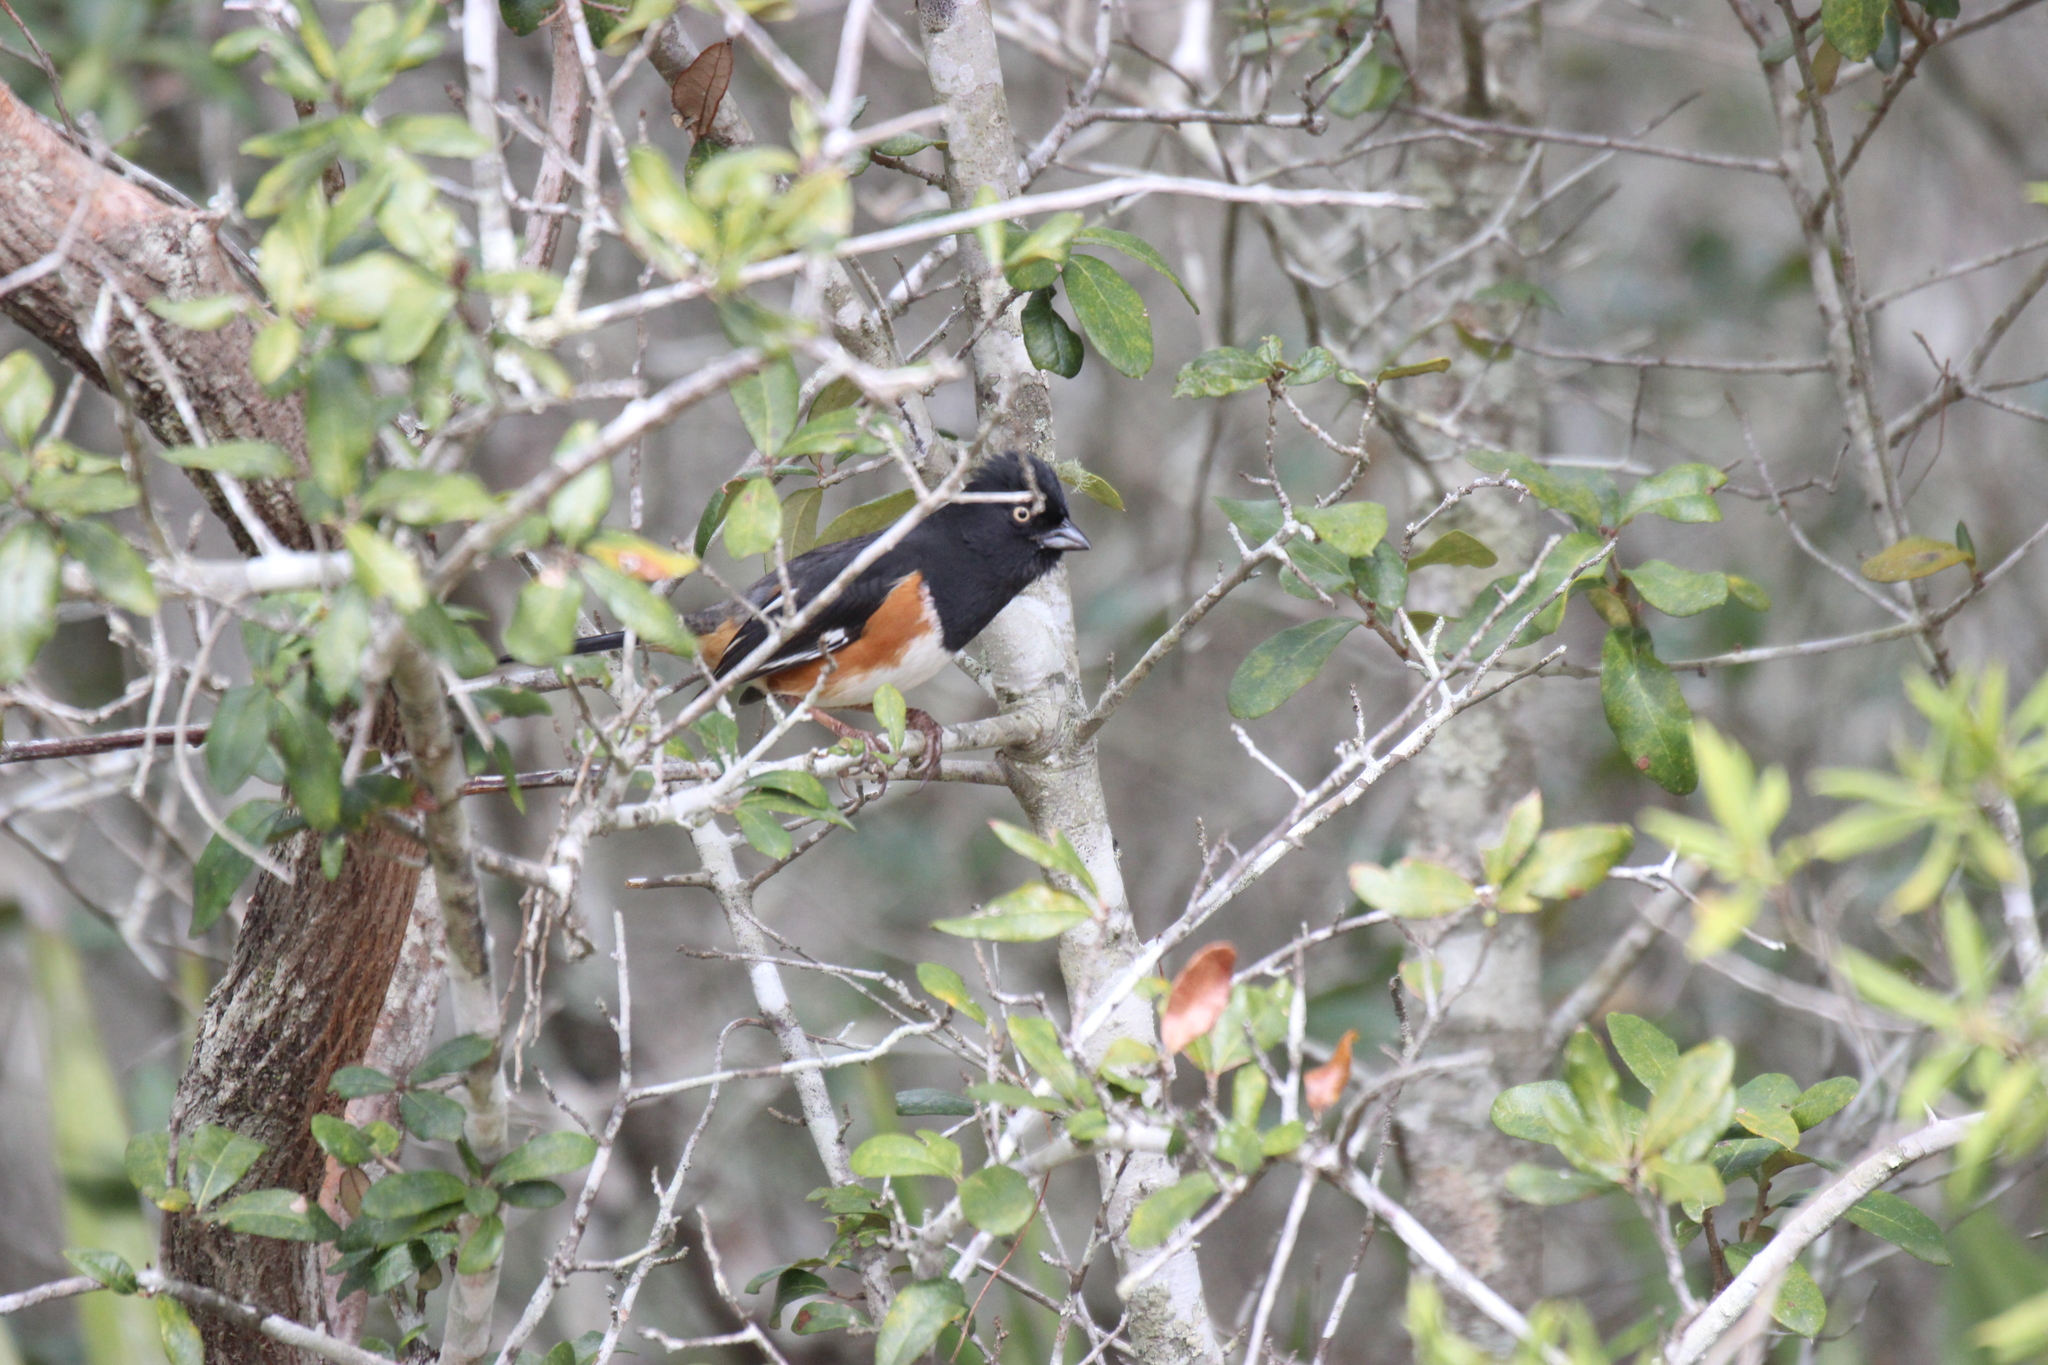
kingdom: Animalia
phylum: Chordata
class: Aves
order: Passeriformes
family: Passerellidae
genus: Pipilo
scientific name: Pipilo erythrophthalmus
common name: Eastern towhee
